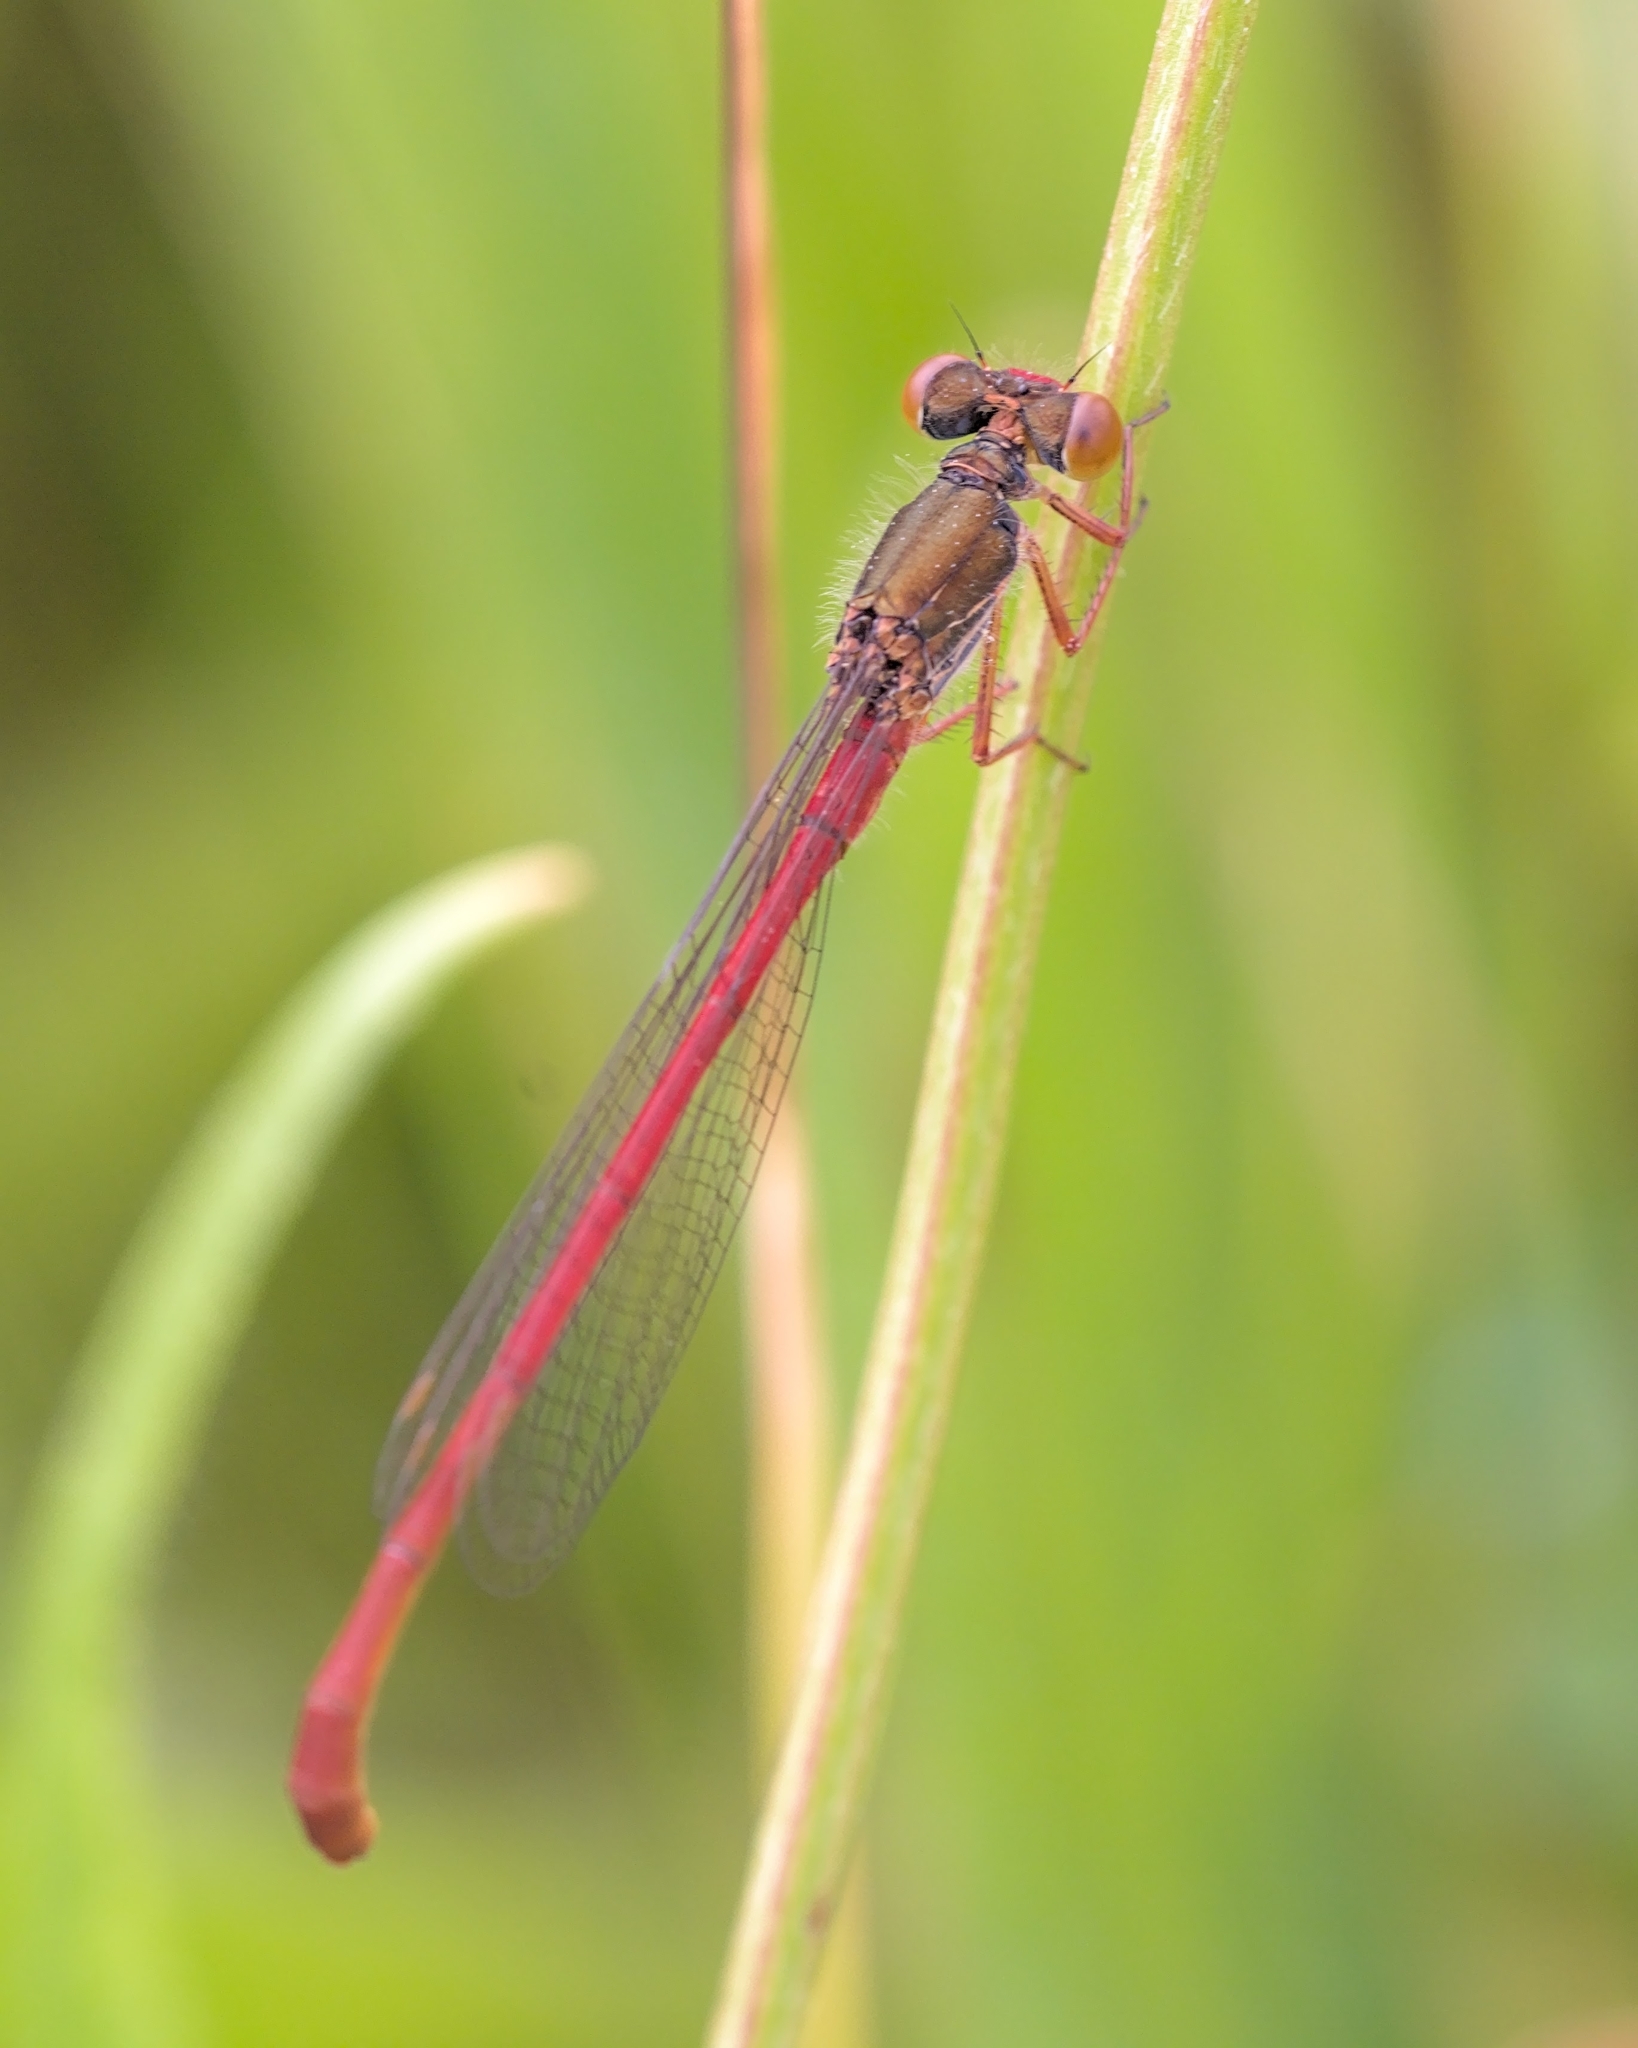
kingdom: Animalia
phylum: Arthropoda
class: Insecta
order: Odonata
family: Coenagrionidae
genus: Ceriagrion
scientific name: Ceriagrion tenellum
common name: Small red damselfly
